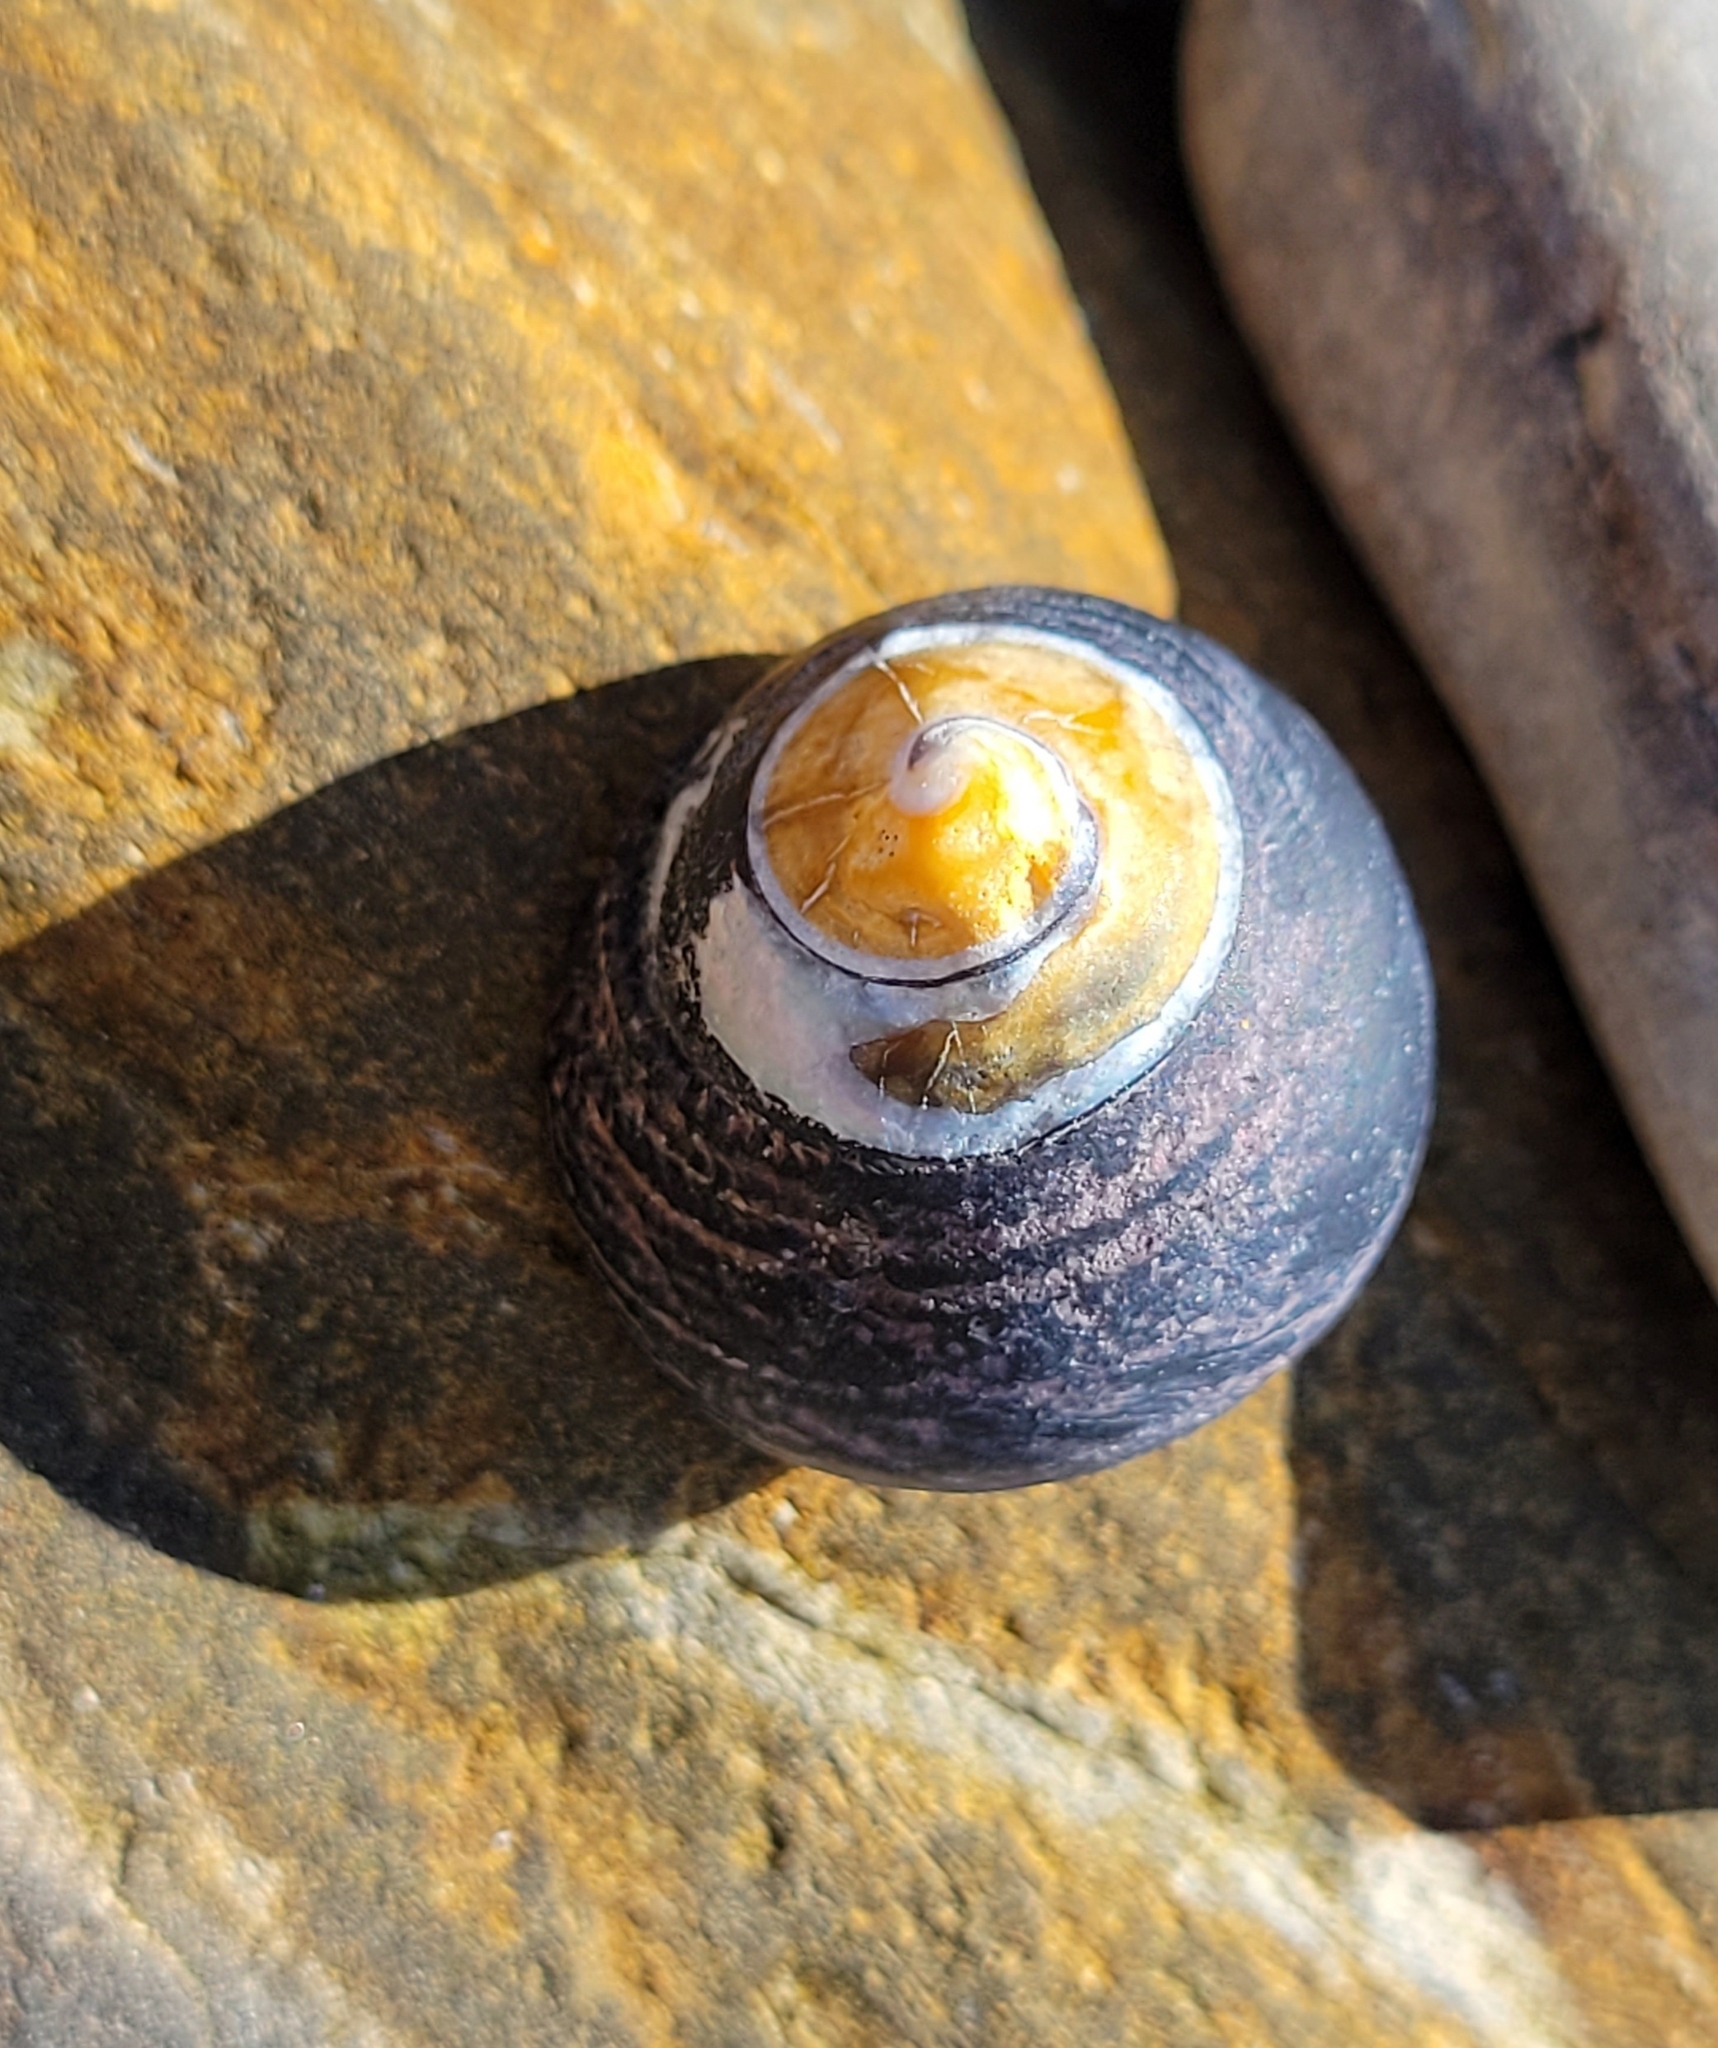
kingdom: Animalia
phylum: Mollusca
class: Gastropoda
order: Trochida
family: Tegulidae
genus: Tegula
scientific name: Tegula funebralis
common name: Black tegula
